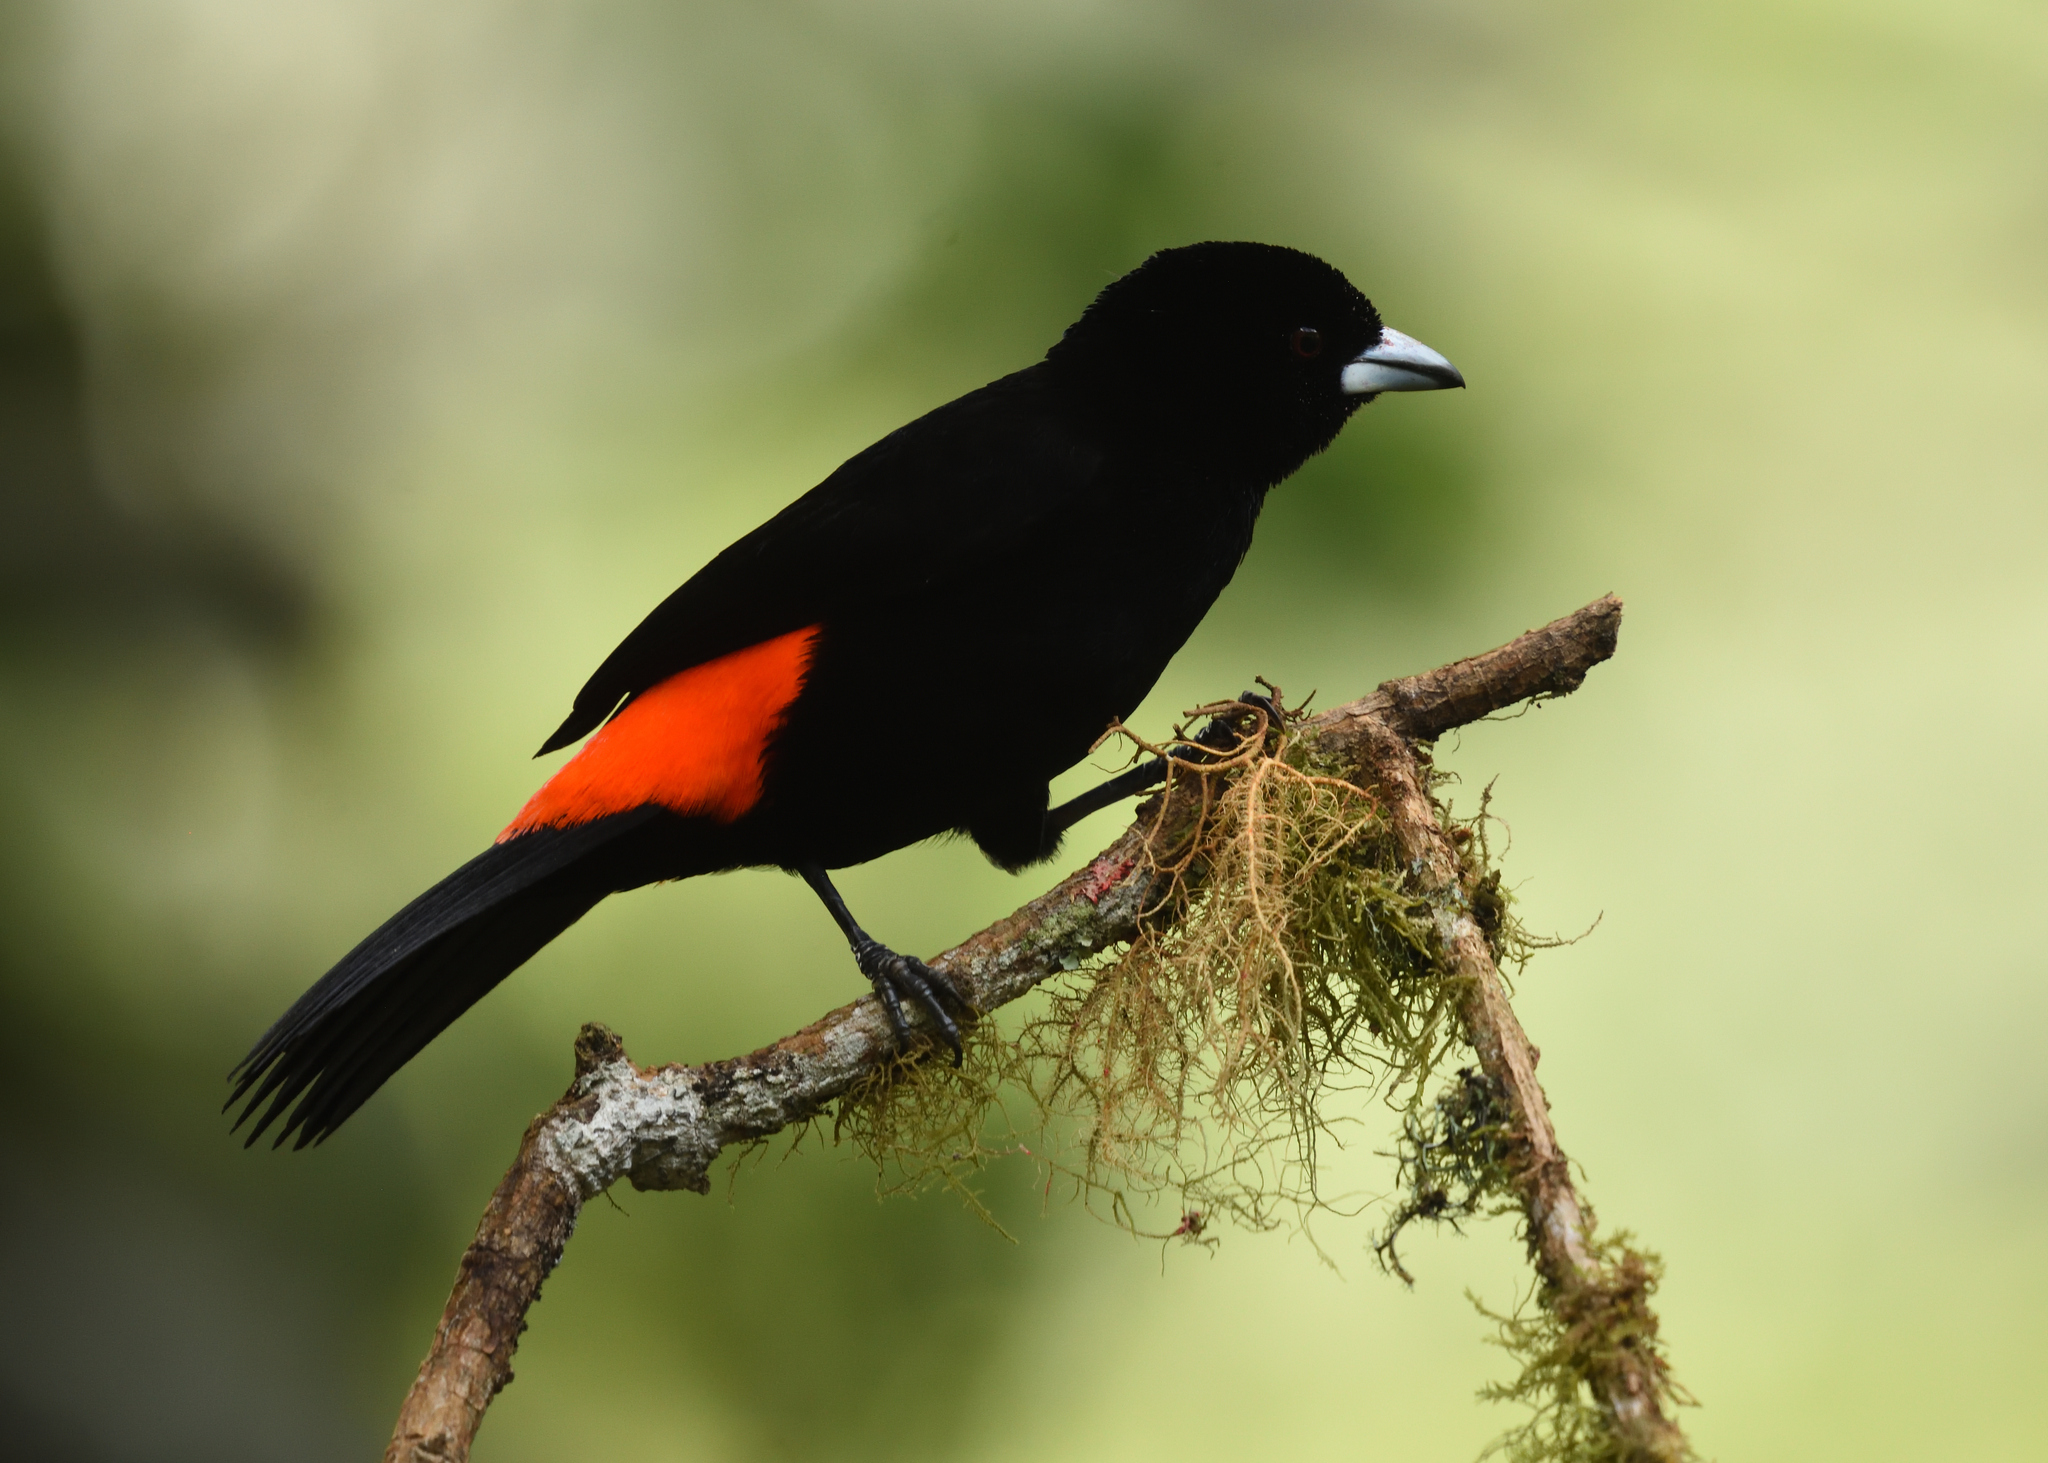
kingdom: Animalia
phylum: Chordata
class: Aves
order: Passeriformes
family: Thraupidae
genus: Ramphocelus
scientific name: Ramphocelus flammigerus
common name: Flame-rumped tanager
